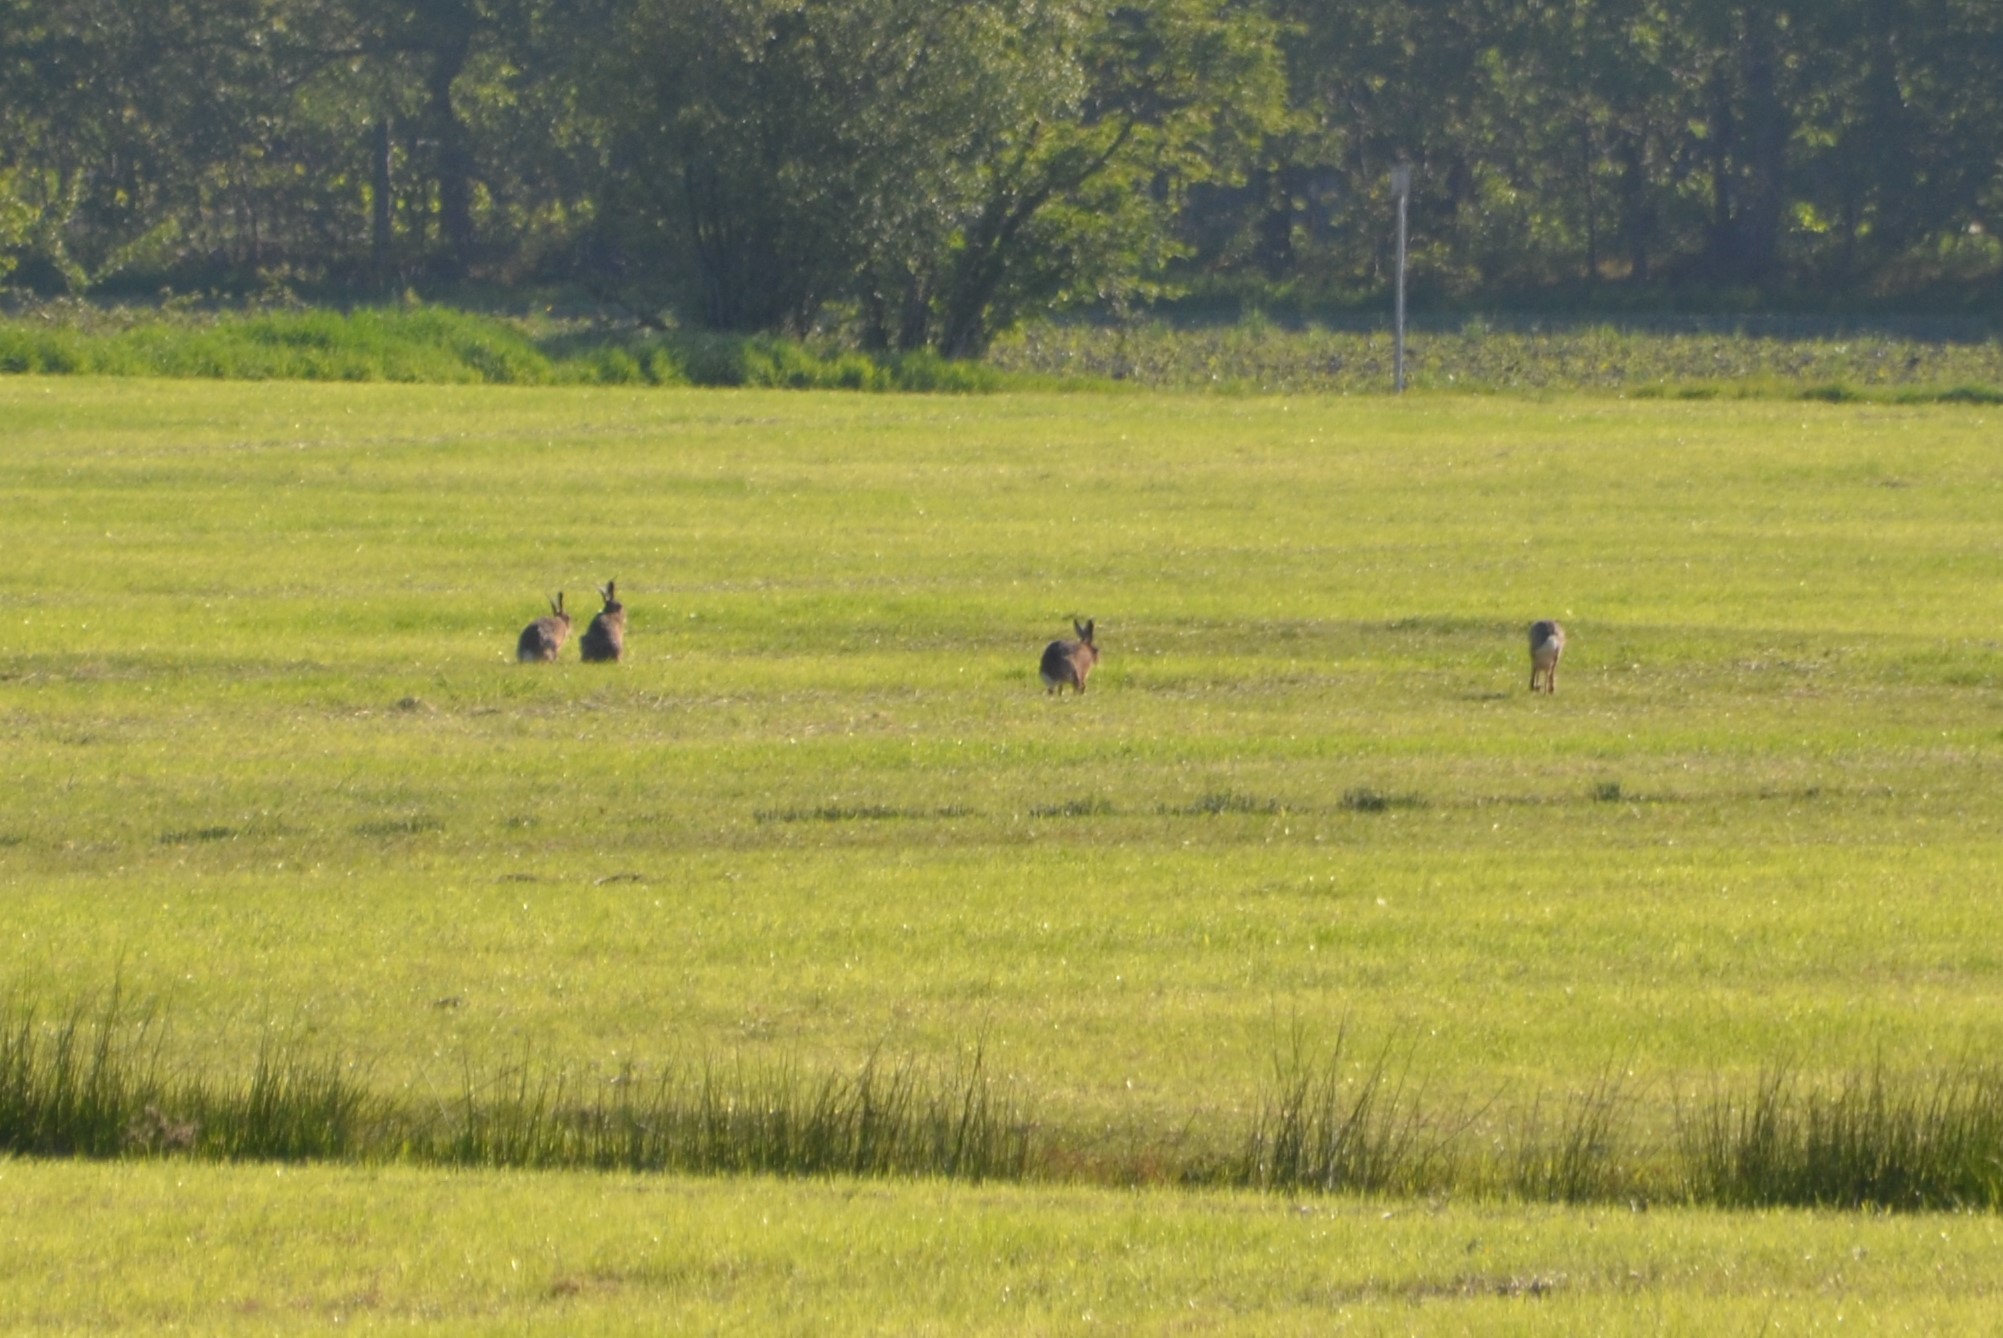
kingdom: Animalia
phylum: Chordata
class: Mammalia
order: Lagomorpha
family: Leporidae
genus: Lepus
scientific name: Lepus europaeus
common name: European hare
